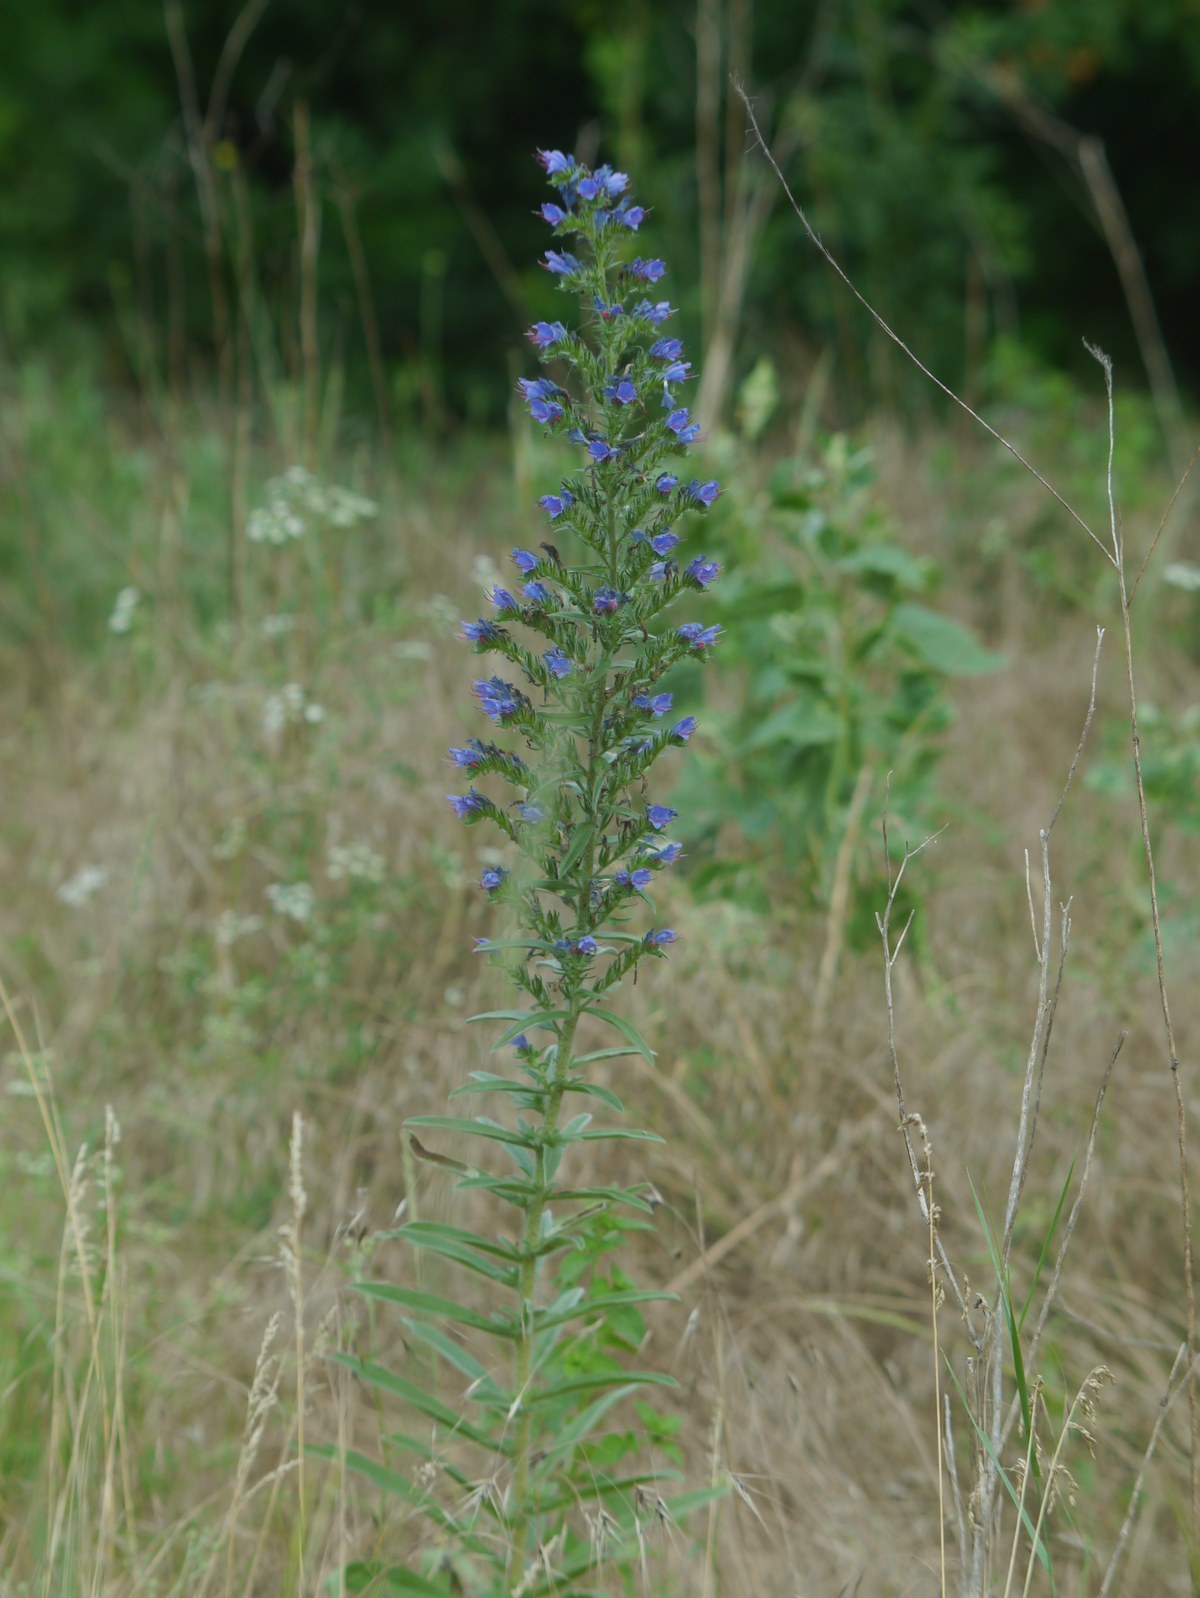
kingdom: Plantae
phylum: Tracheophyta
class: Magnoliopsida
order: Boraginales
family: Boraginaceae
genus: Echium
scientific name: Echium vulgare
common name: Common viper's bugloss
